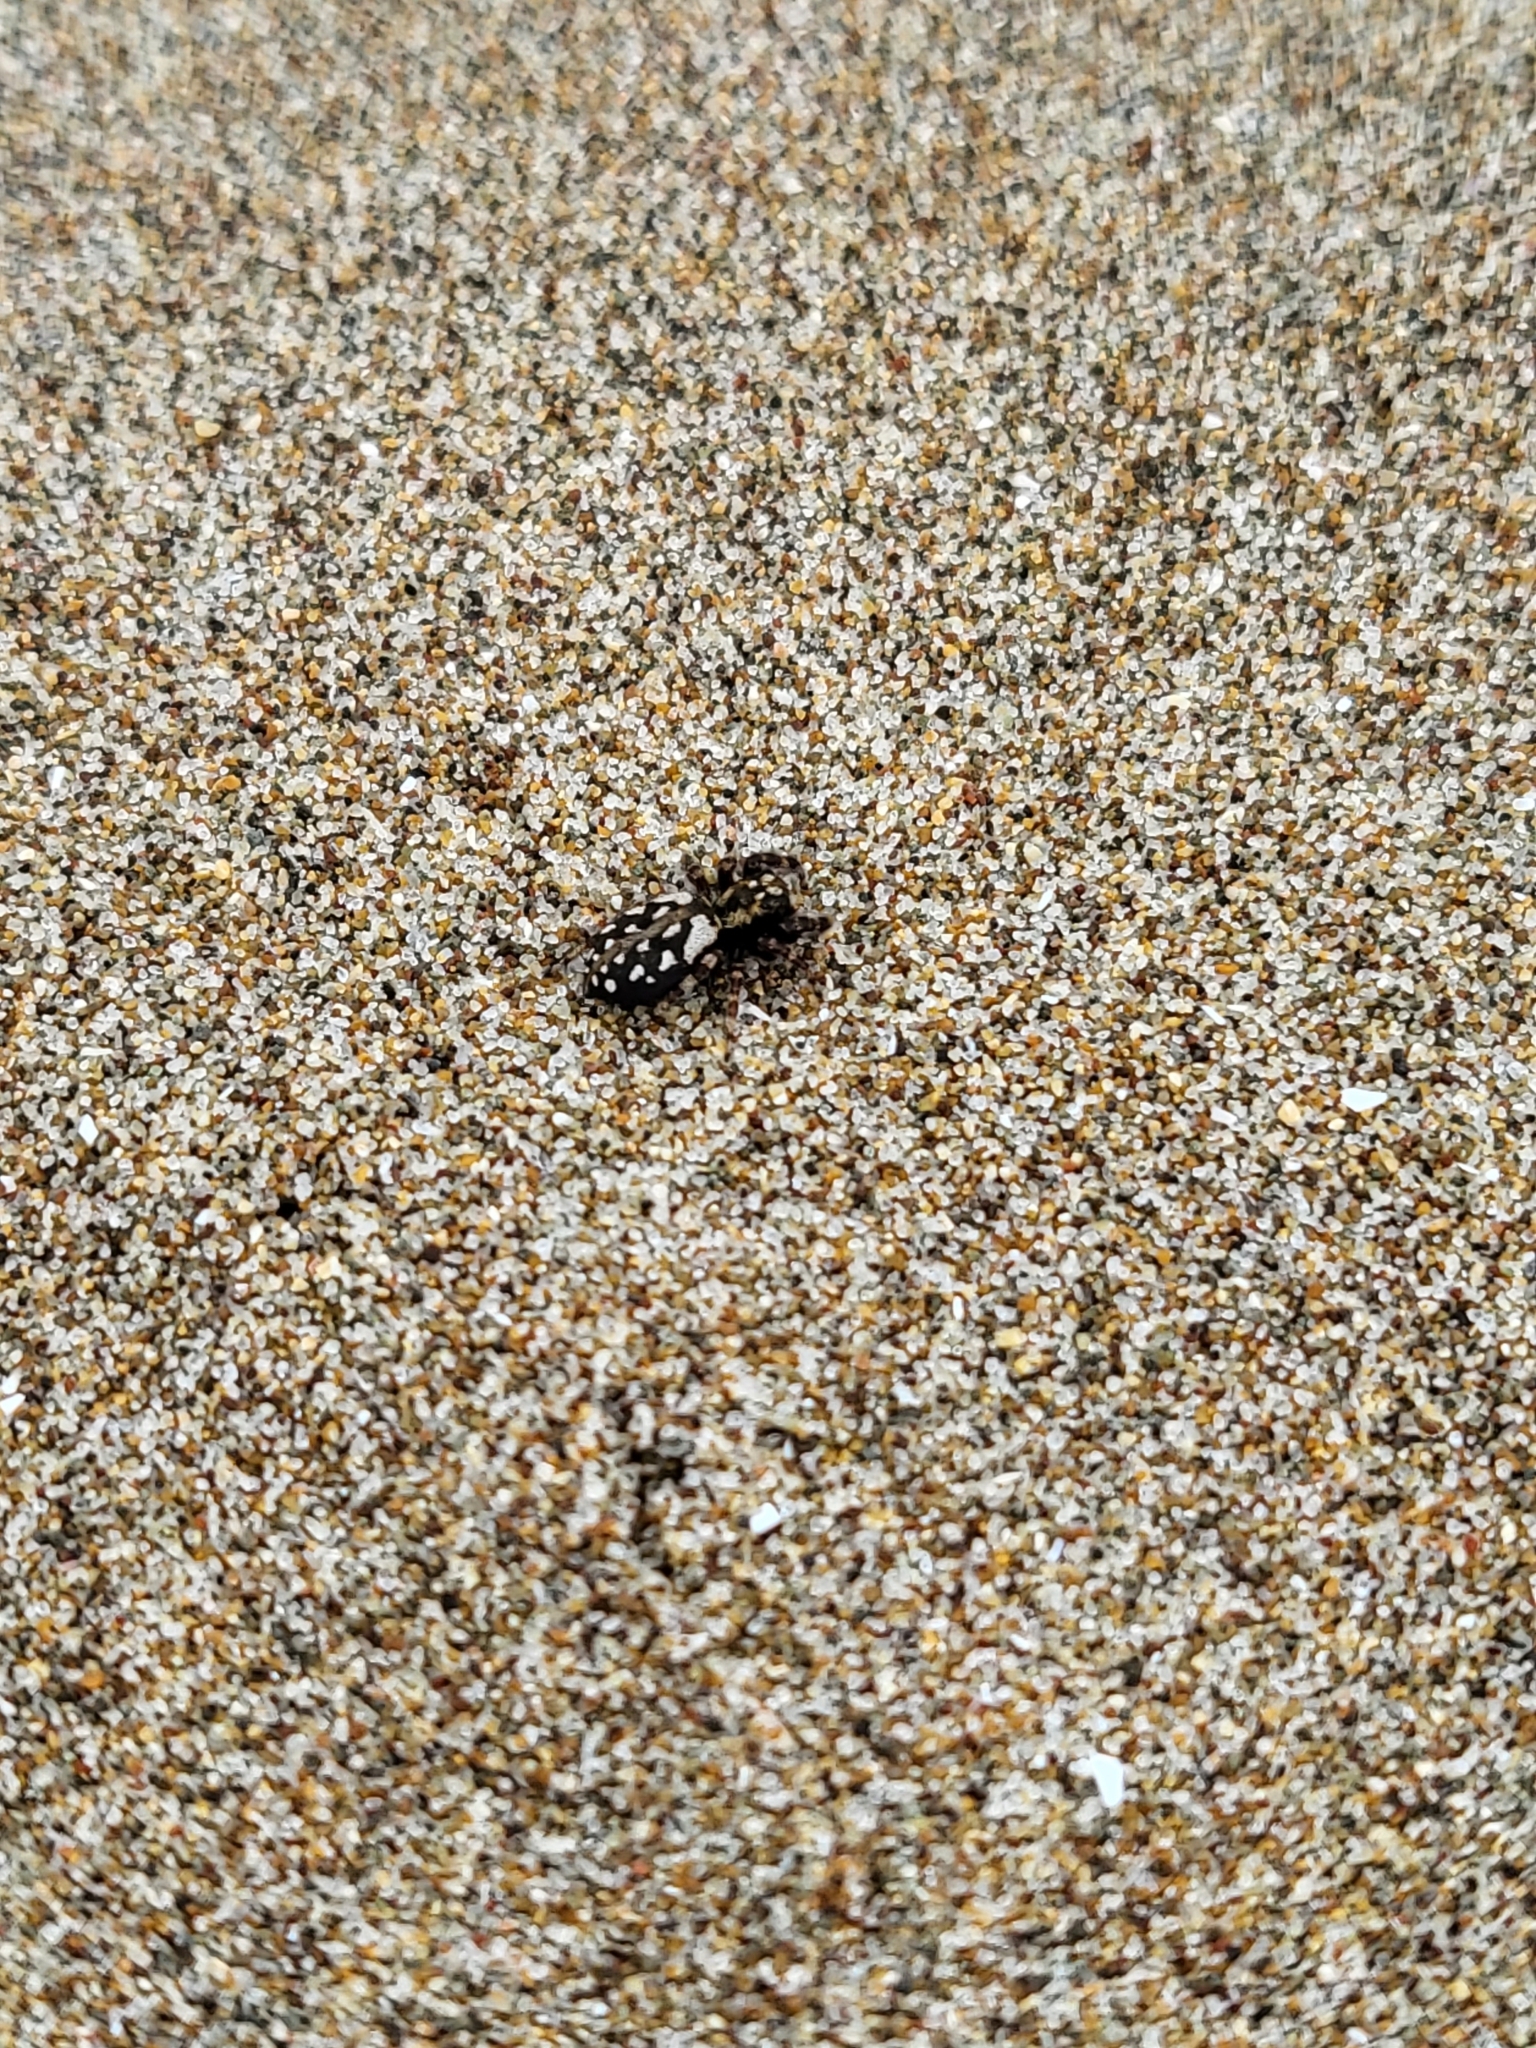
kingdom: Animalia
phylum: Arthropoda
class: Arachnida
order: Araneae
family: Salticidae
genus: Terralonus
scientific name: Terralonus californicus
